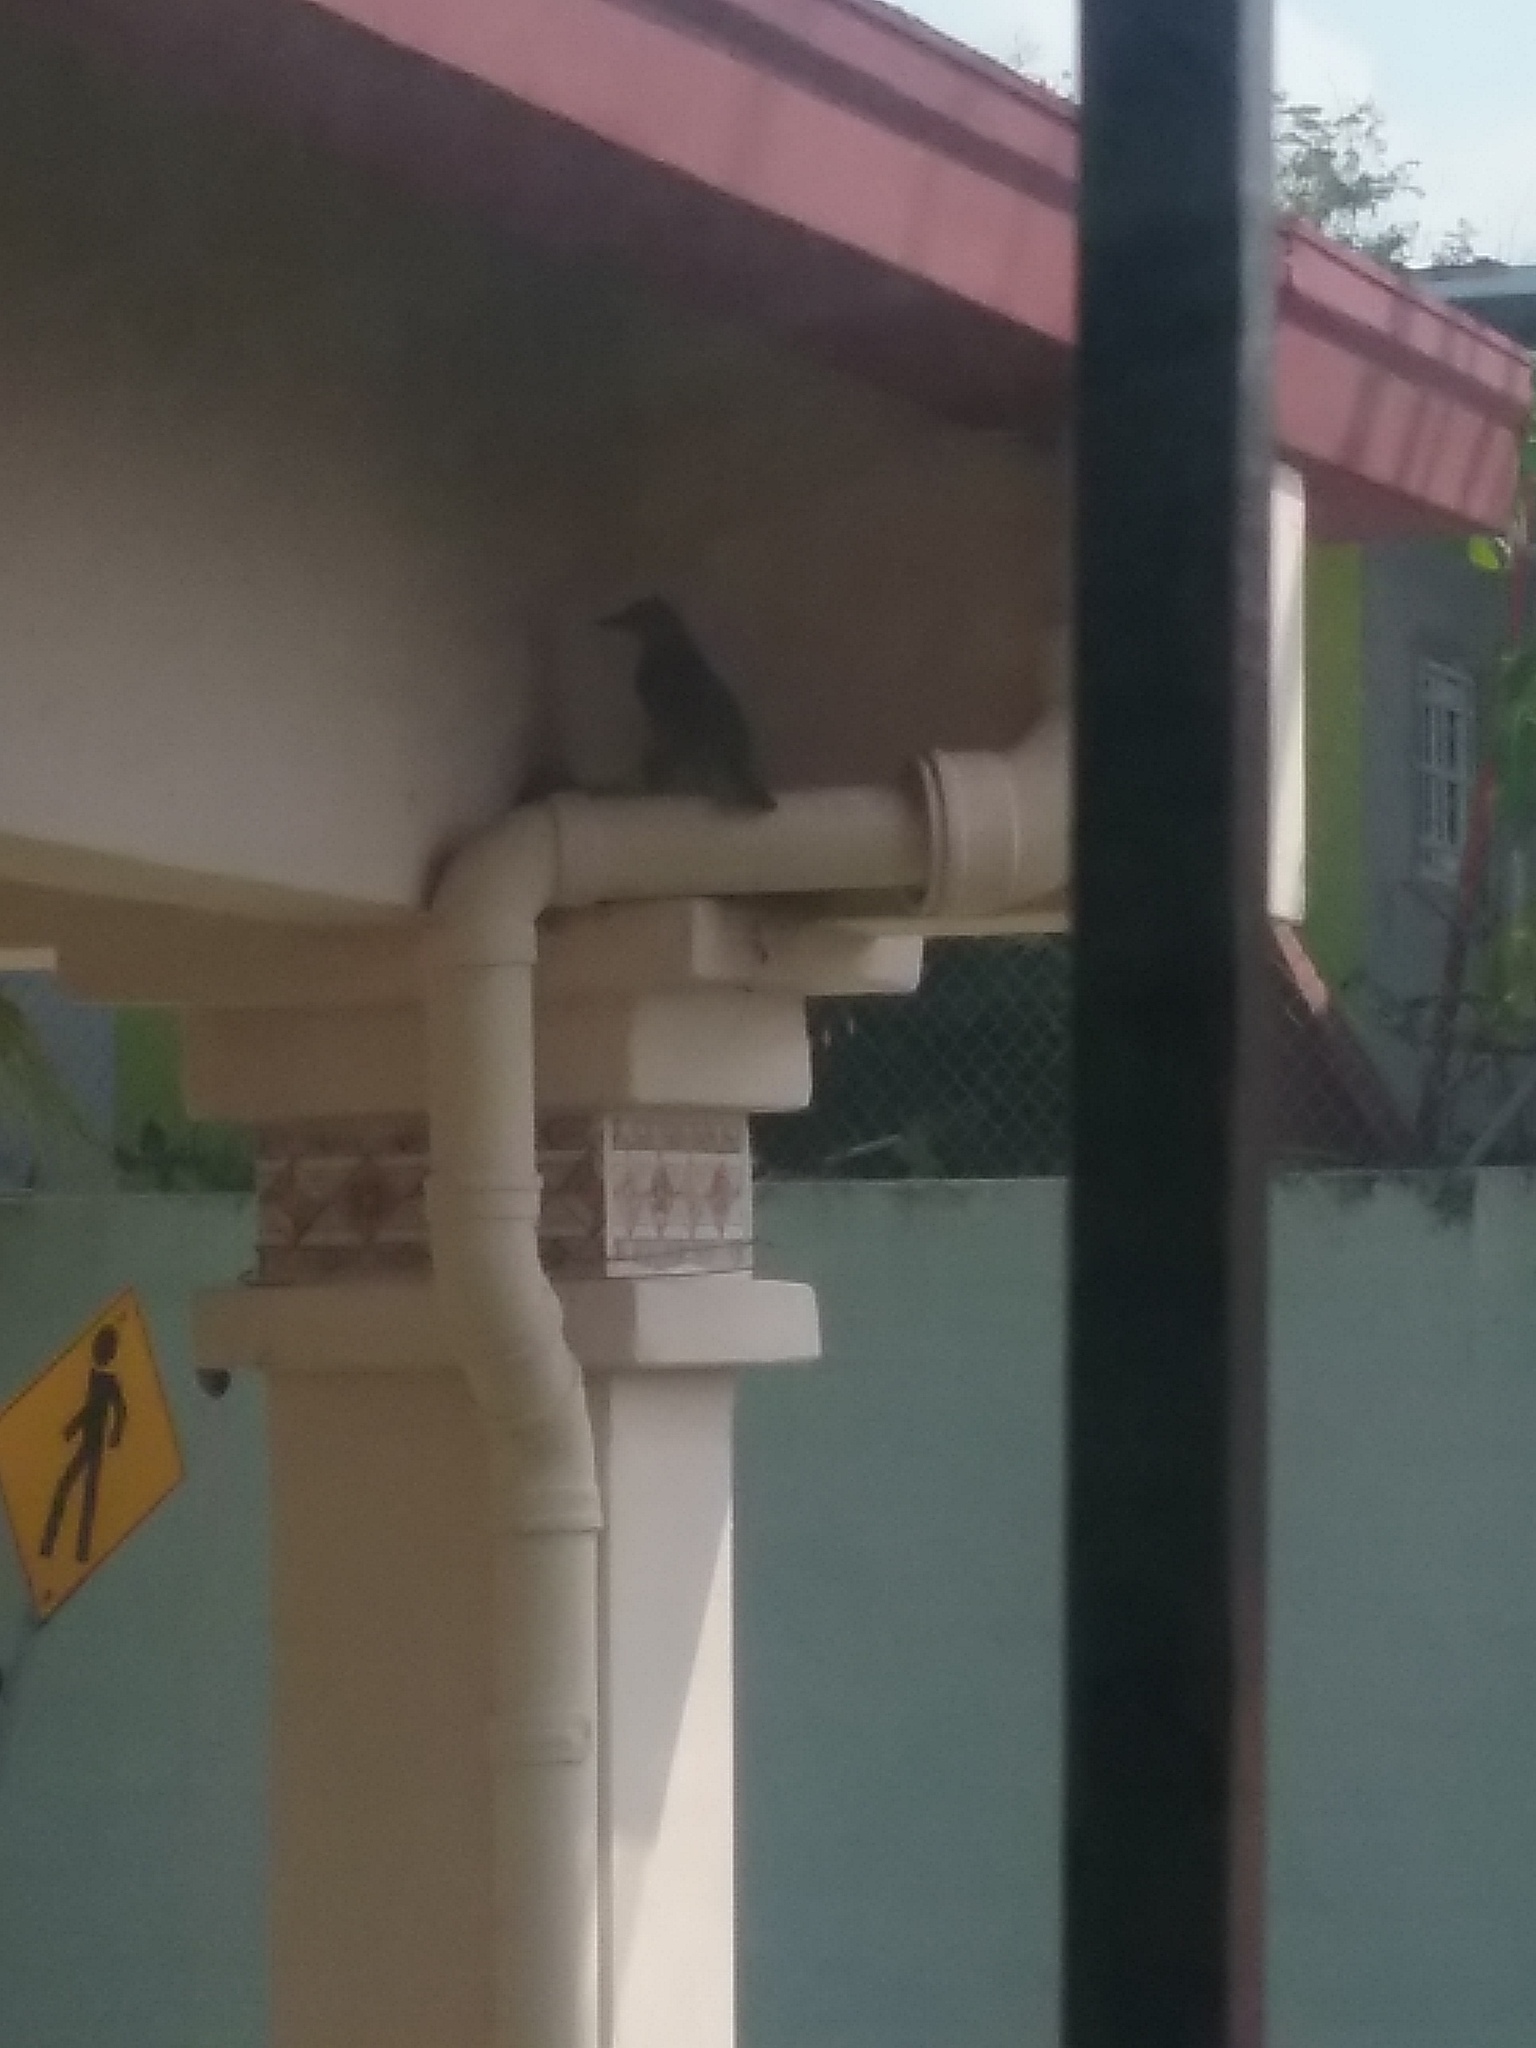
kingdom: Animalia
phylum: Chordata
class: Aves
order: Passeriformes
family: Turdidae
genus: Turdus
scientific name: Turdus grayi
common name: Clay-colored thrush
